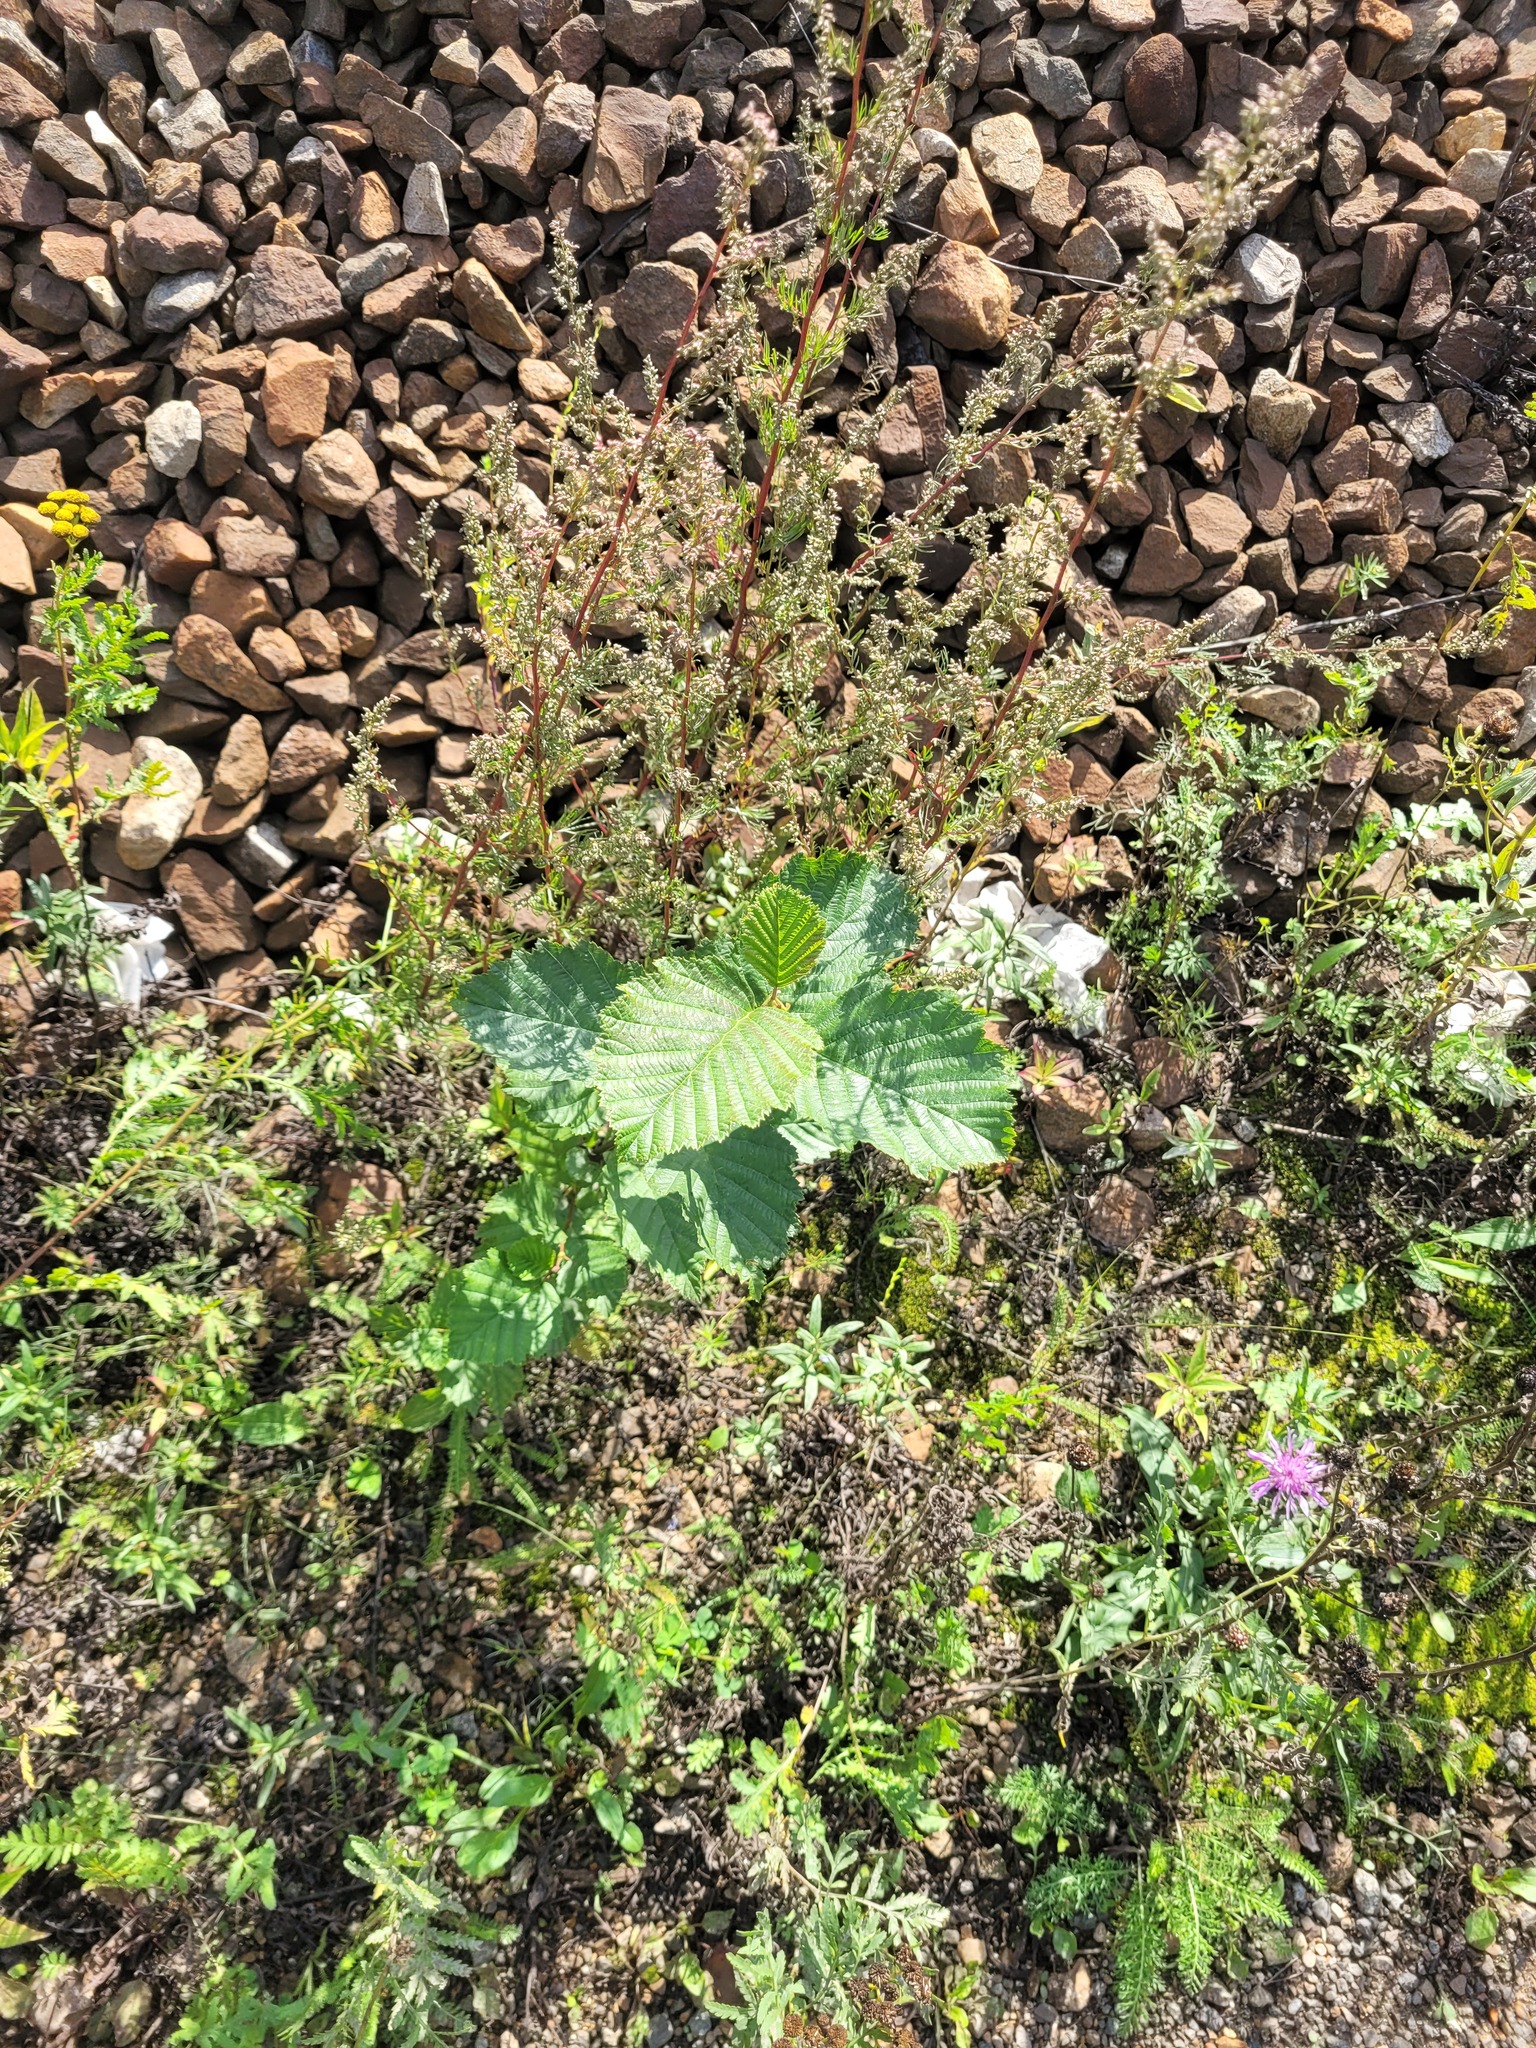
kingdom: Plantae
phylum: Tracheophyta
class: Magnoliopsida
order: Fagales
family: Betulaceae
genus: Alnus
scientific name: Alnus incana
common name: Grey alder
